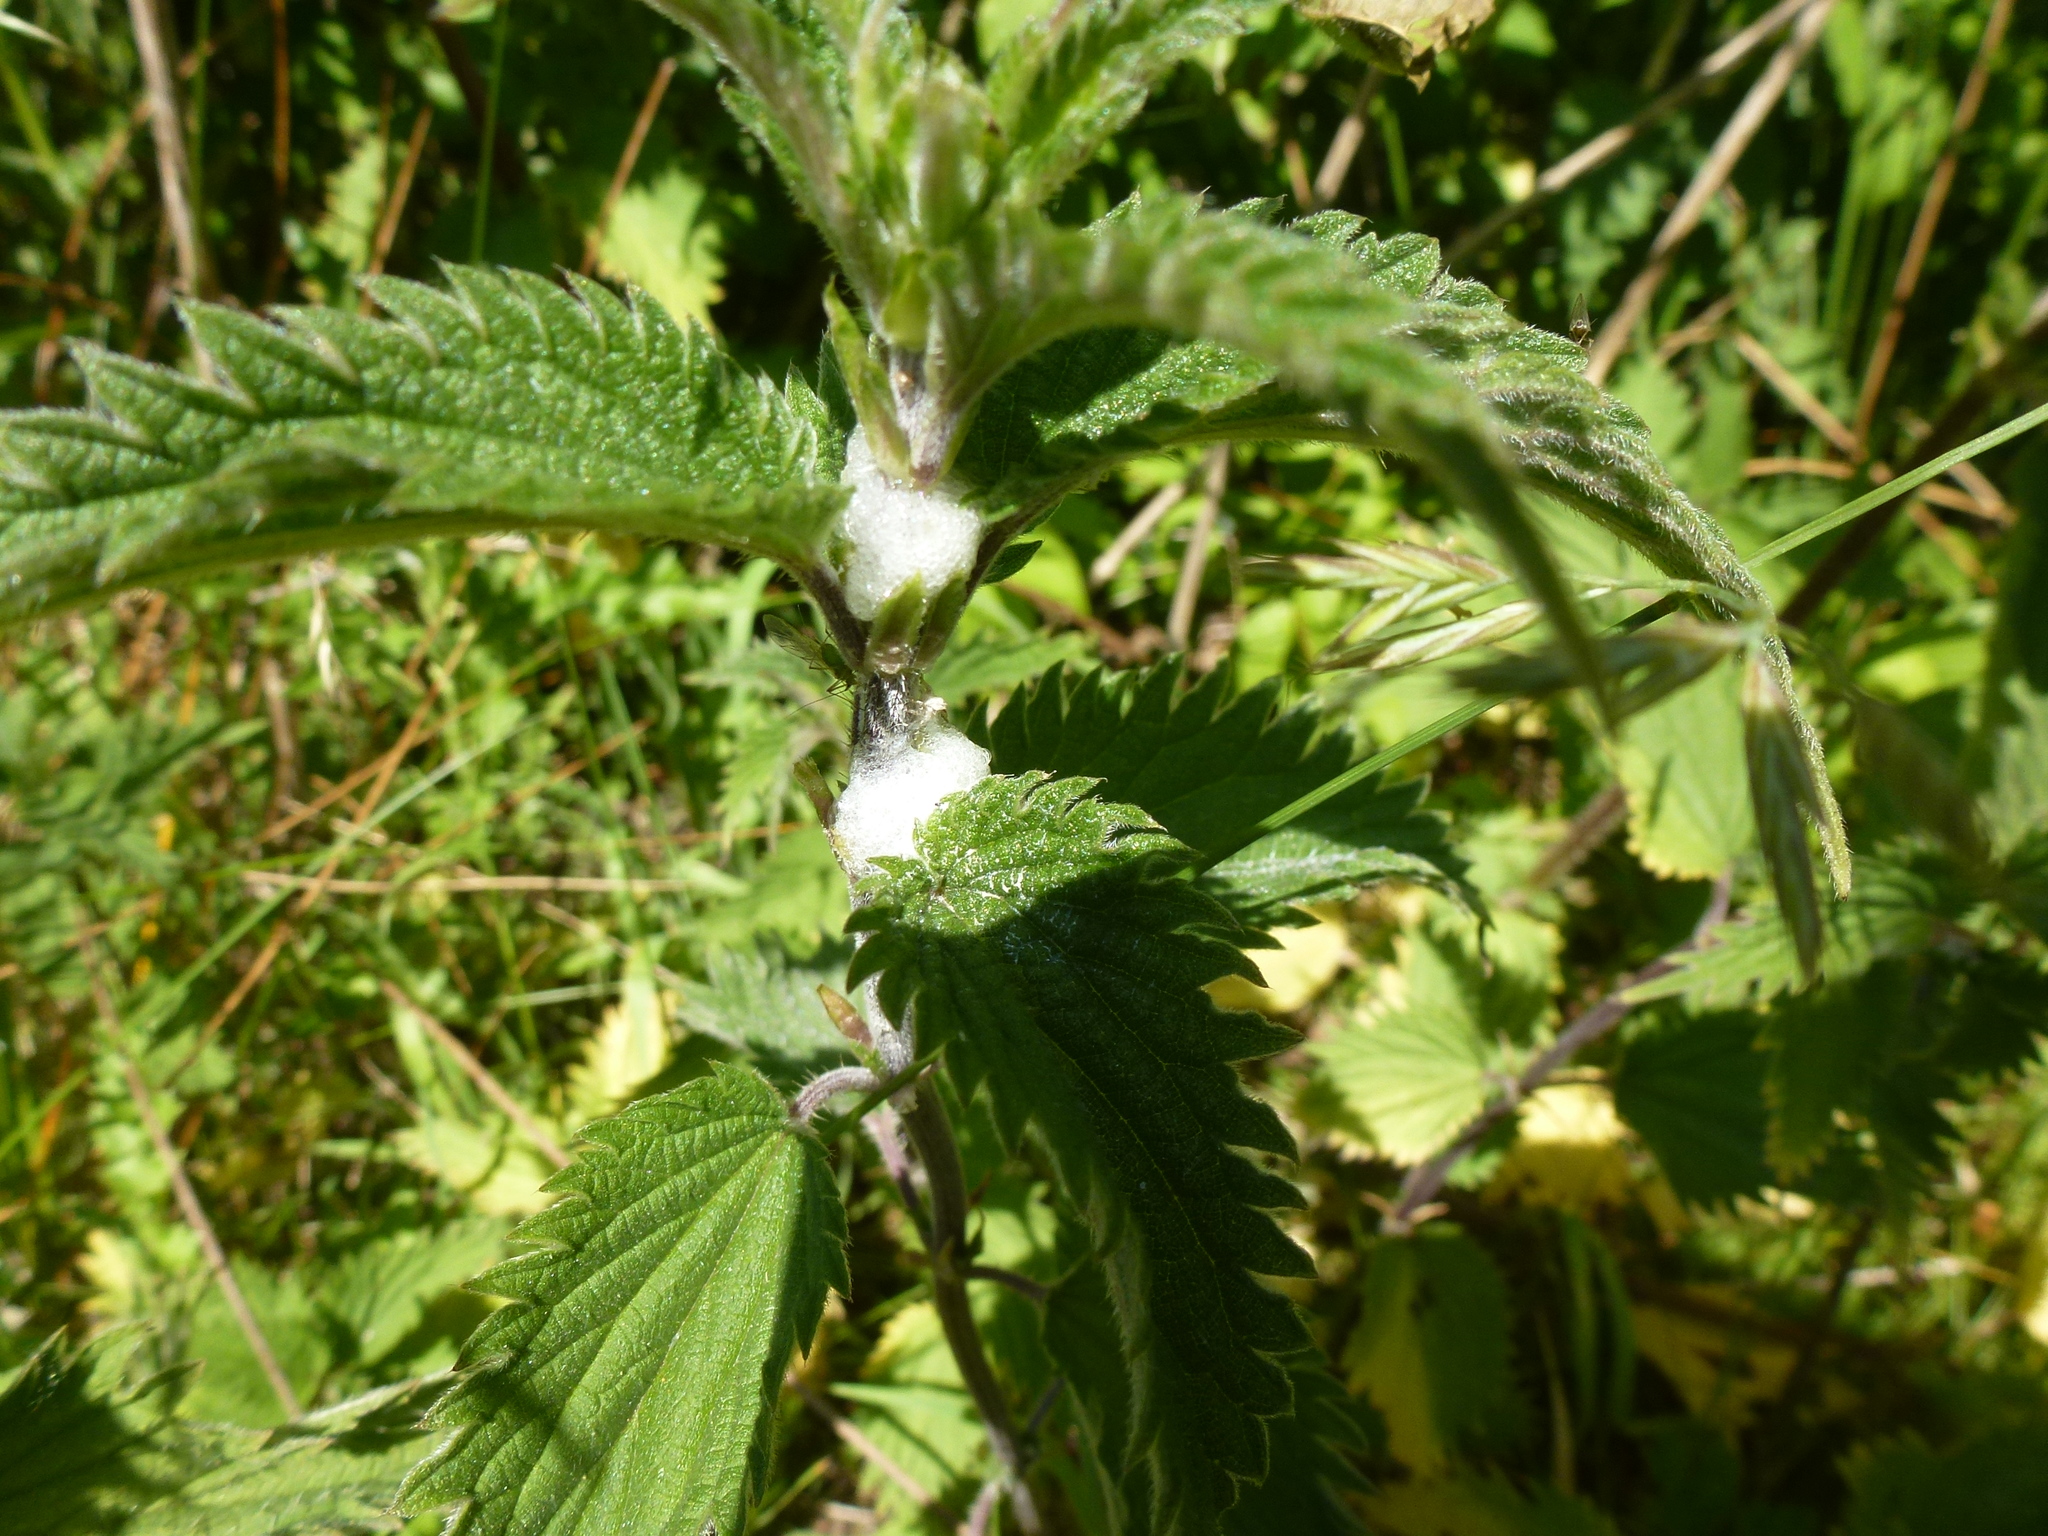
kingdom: Animalia
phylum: Arthropoda
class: Insecta
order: Hemiptera
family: Aphrophoridae
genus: Philaenus
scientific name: Philaenus spumarius
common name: Meadow spittlebug
